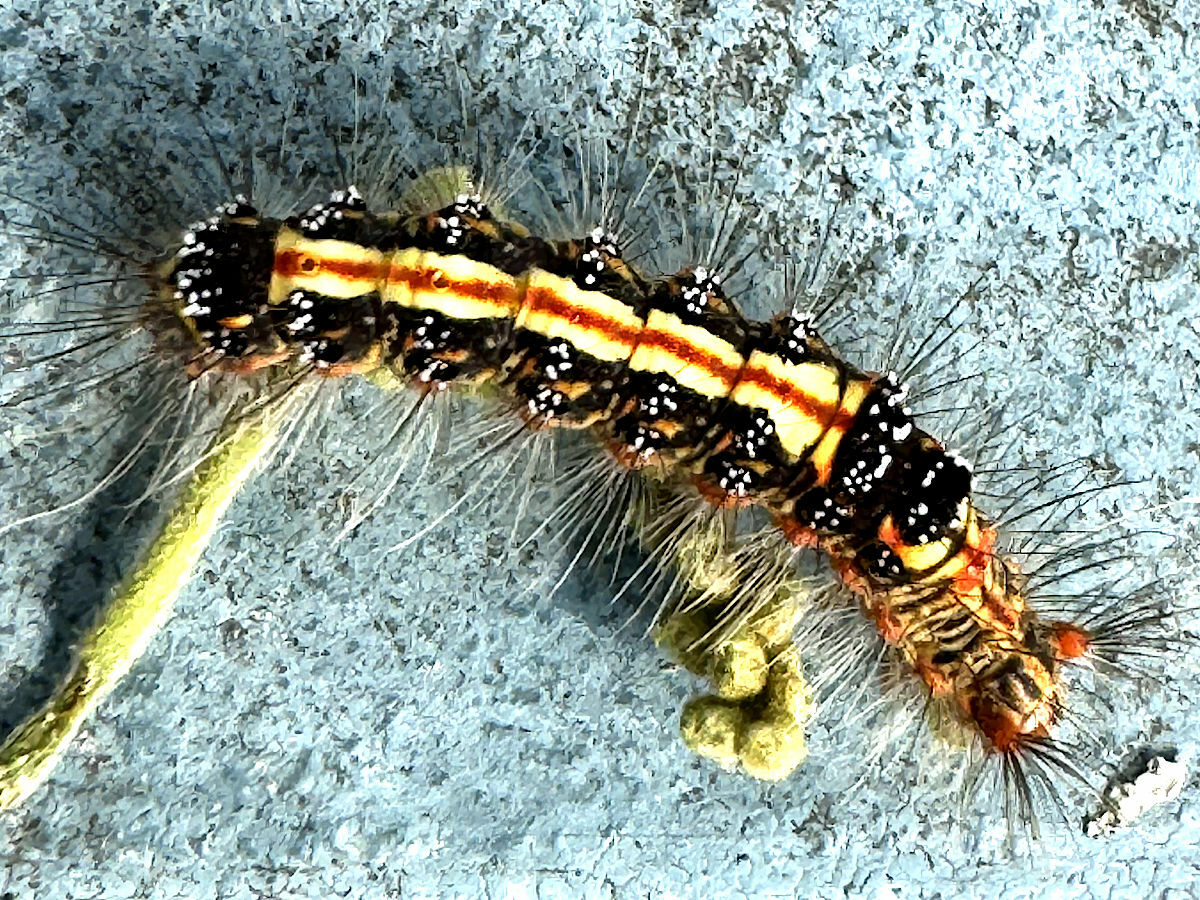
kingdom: Animalia
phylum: Arthropoda
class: Insecta
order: Lepidoptera
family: Erebidae
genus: Euproctis
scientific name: Euproctis taiwana
